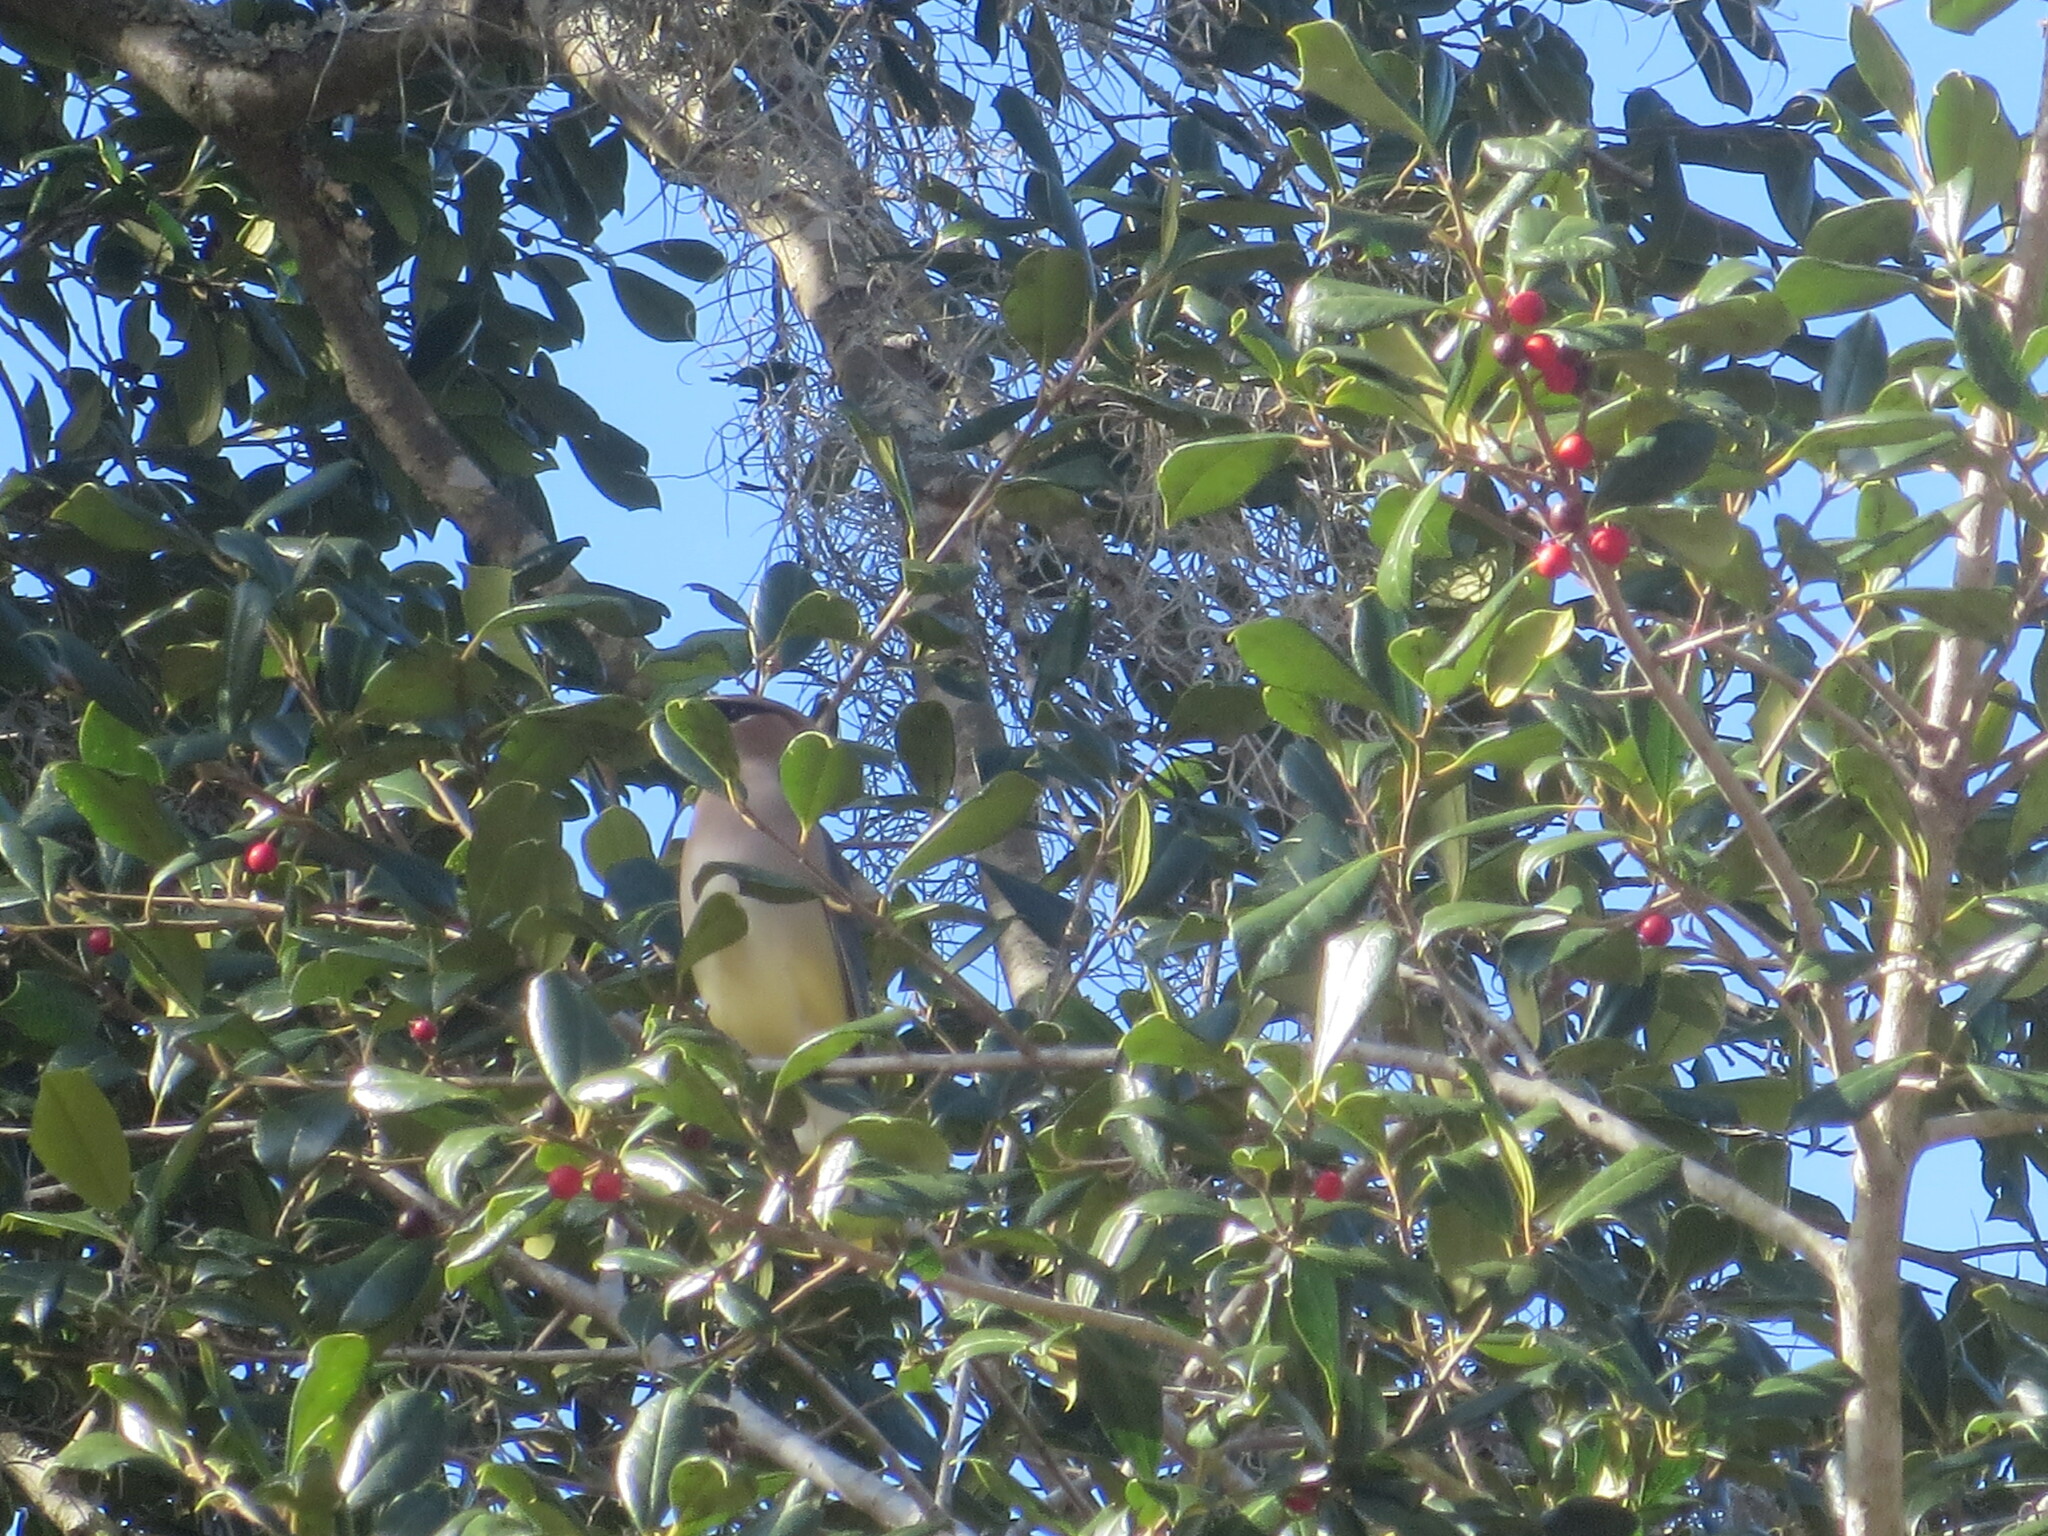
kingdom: Animalia
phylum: Chordata
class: Aves
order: Passeriformes
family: Bombycillidae
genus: Bombycilla
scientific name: Bombycilla cedrorum
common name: Cedar waxwing
